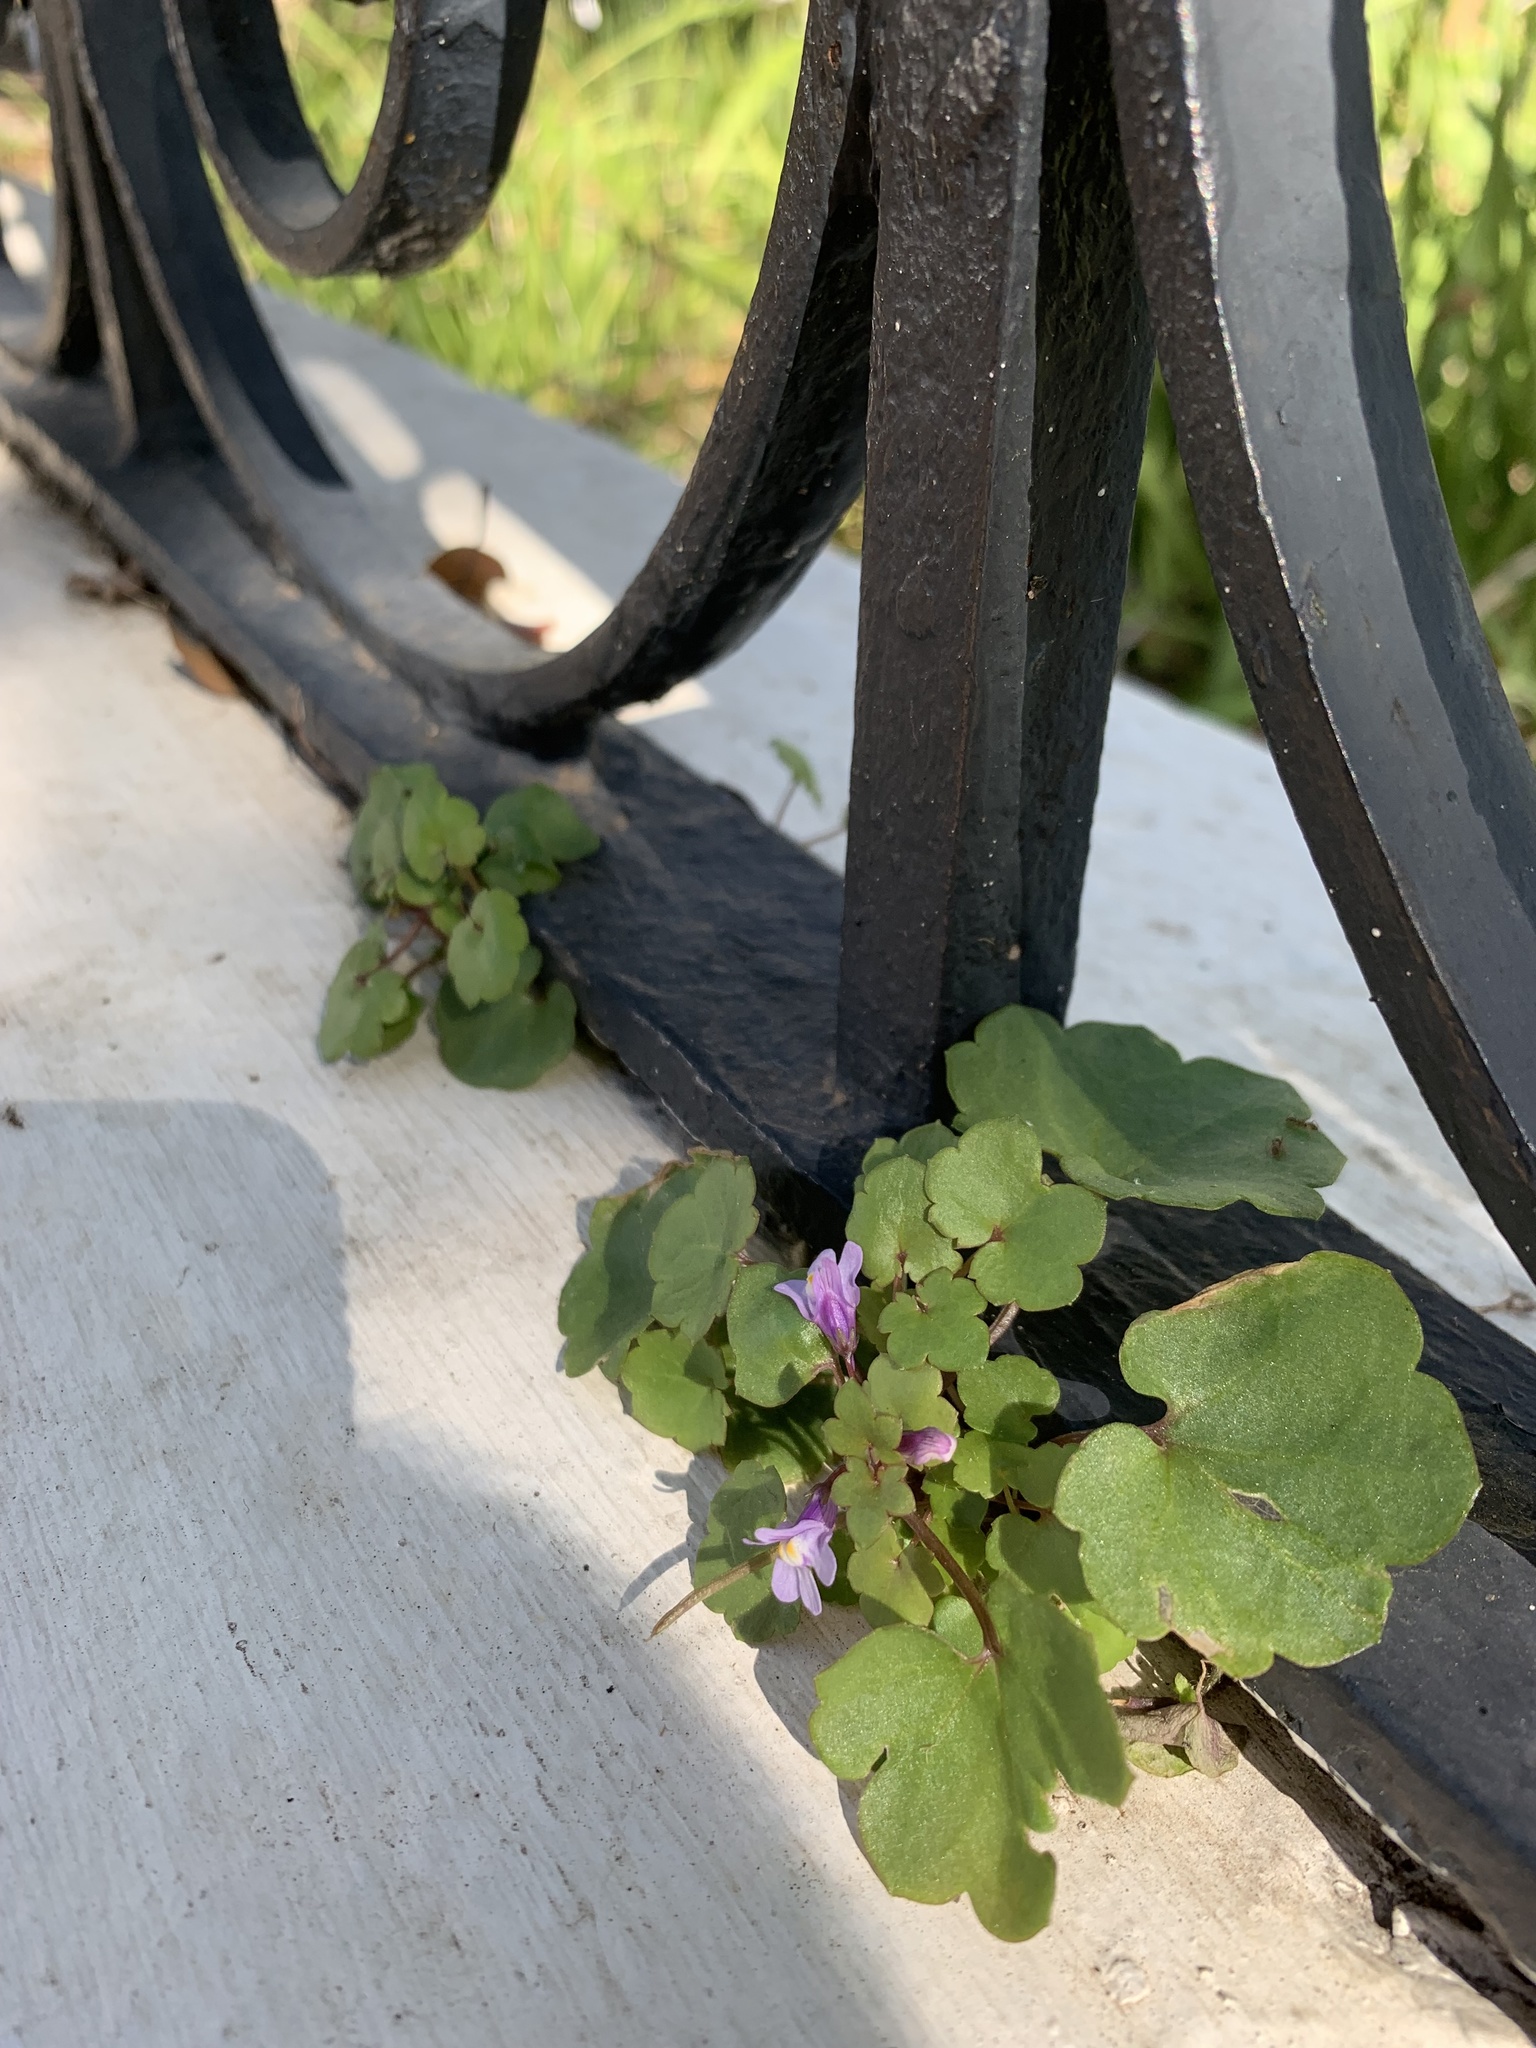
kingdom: Plantae
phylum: Tracheophyta
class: Magnoliopsida
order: Lamiales
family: Plantaginaceae
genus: Cymbalaria
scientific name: Cymbalaria muralis
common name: Ivy-leaved toadflax
